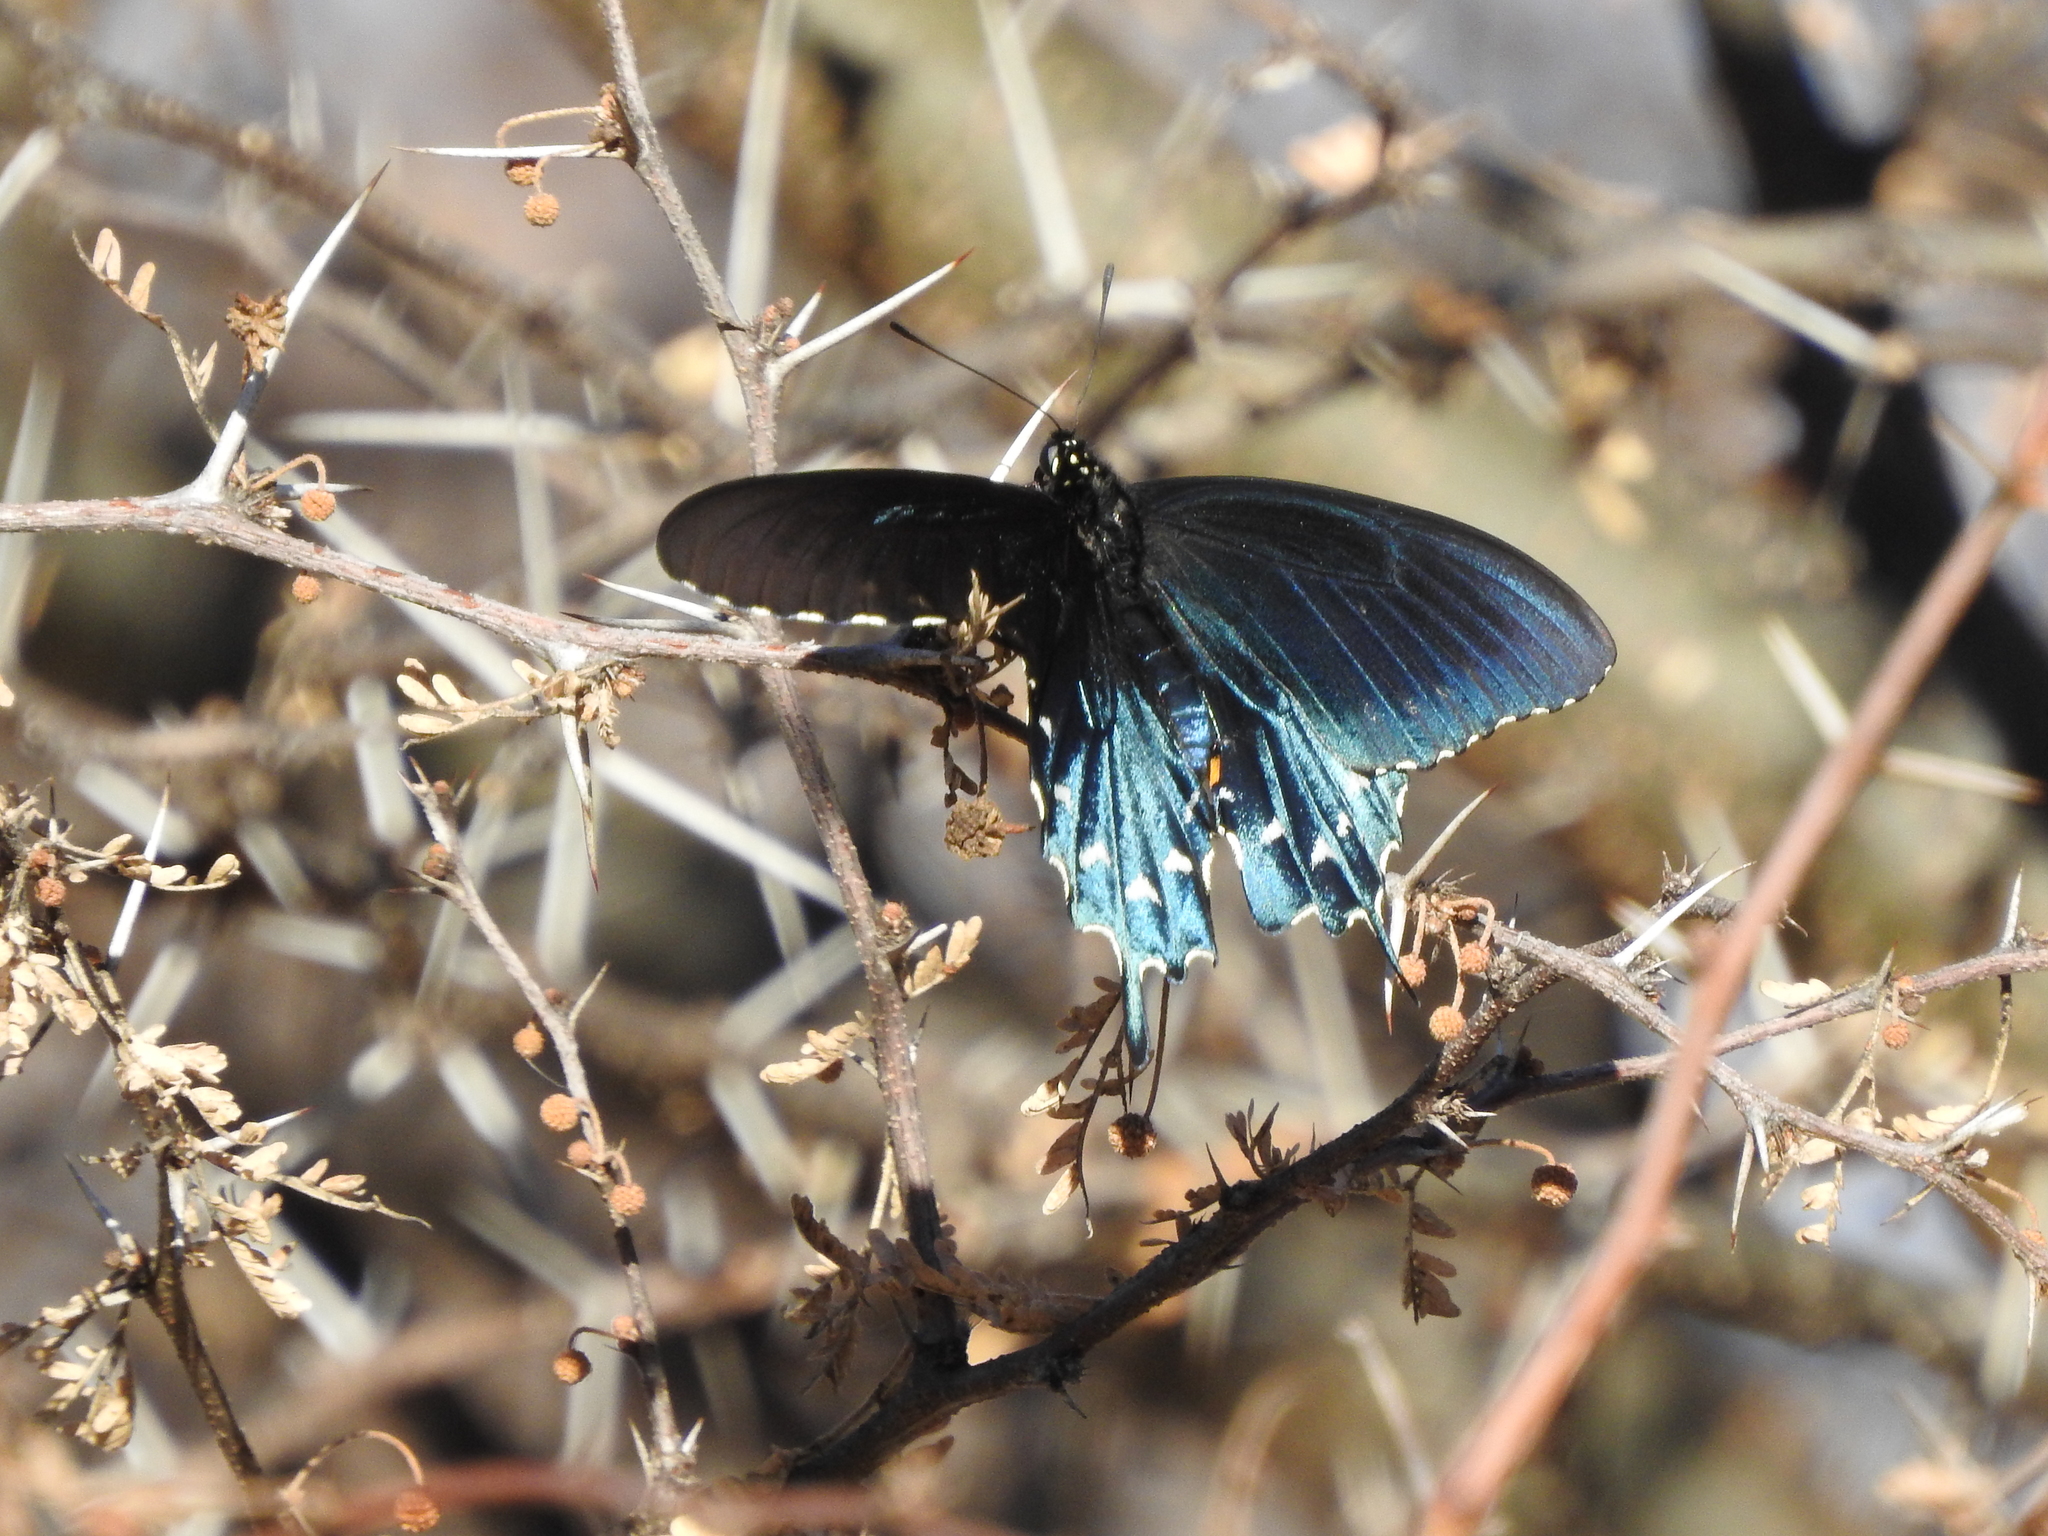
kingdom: Animalia
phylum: Arthropoda
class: Insecta
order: Lepidoptera
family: Papilionidae
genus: Battus
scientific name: Battus philenor
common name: Pipevine swallowtail
